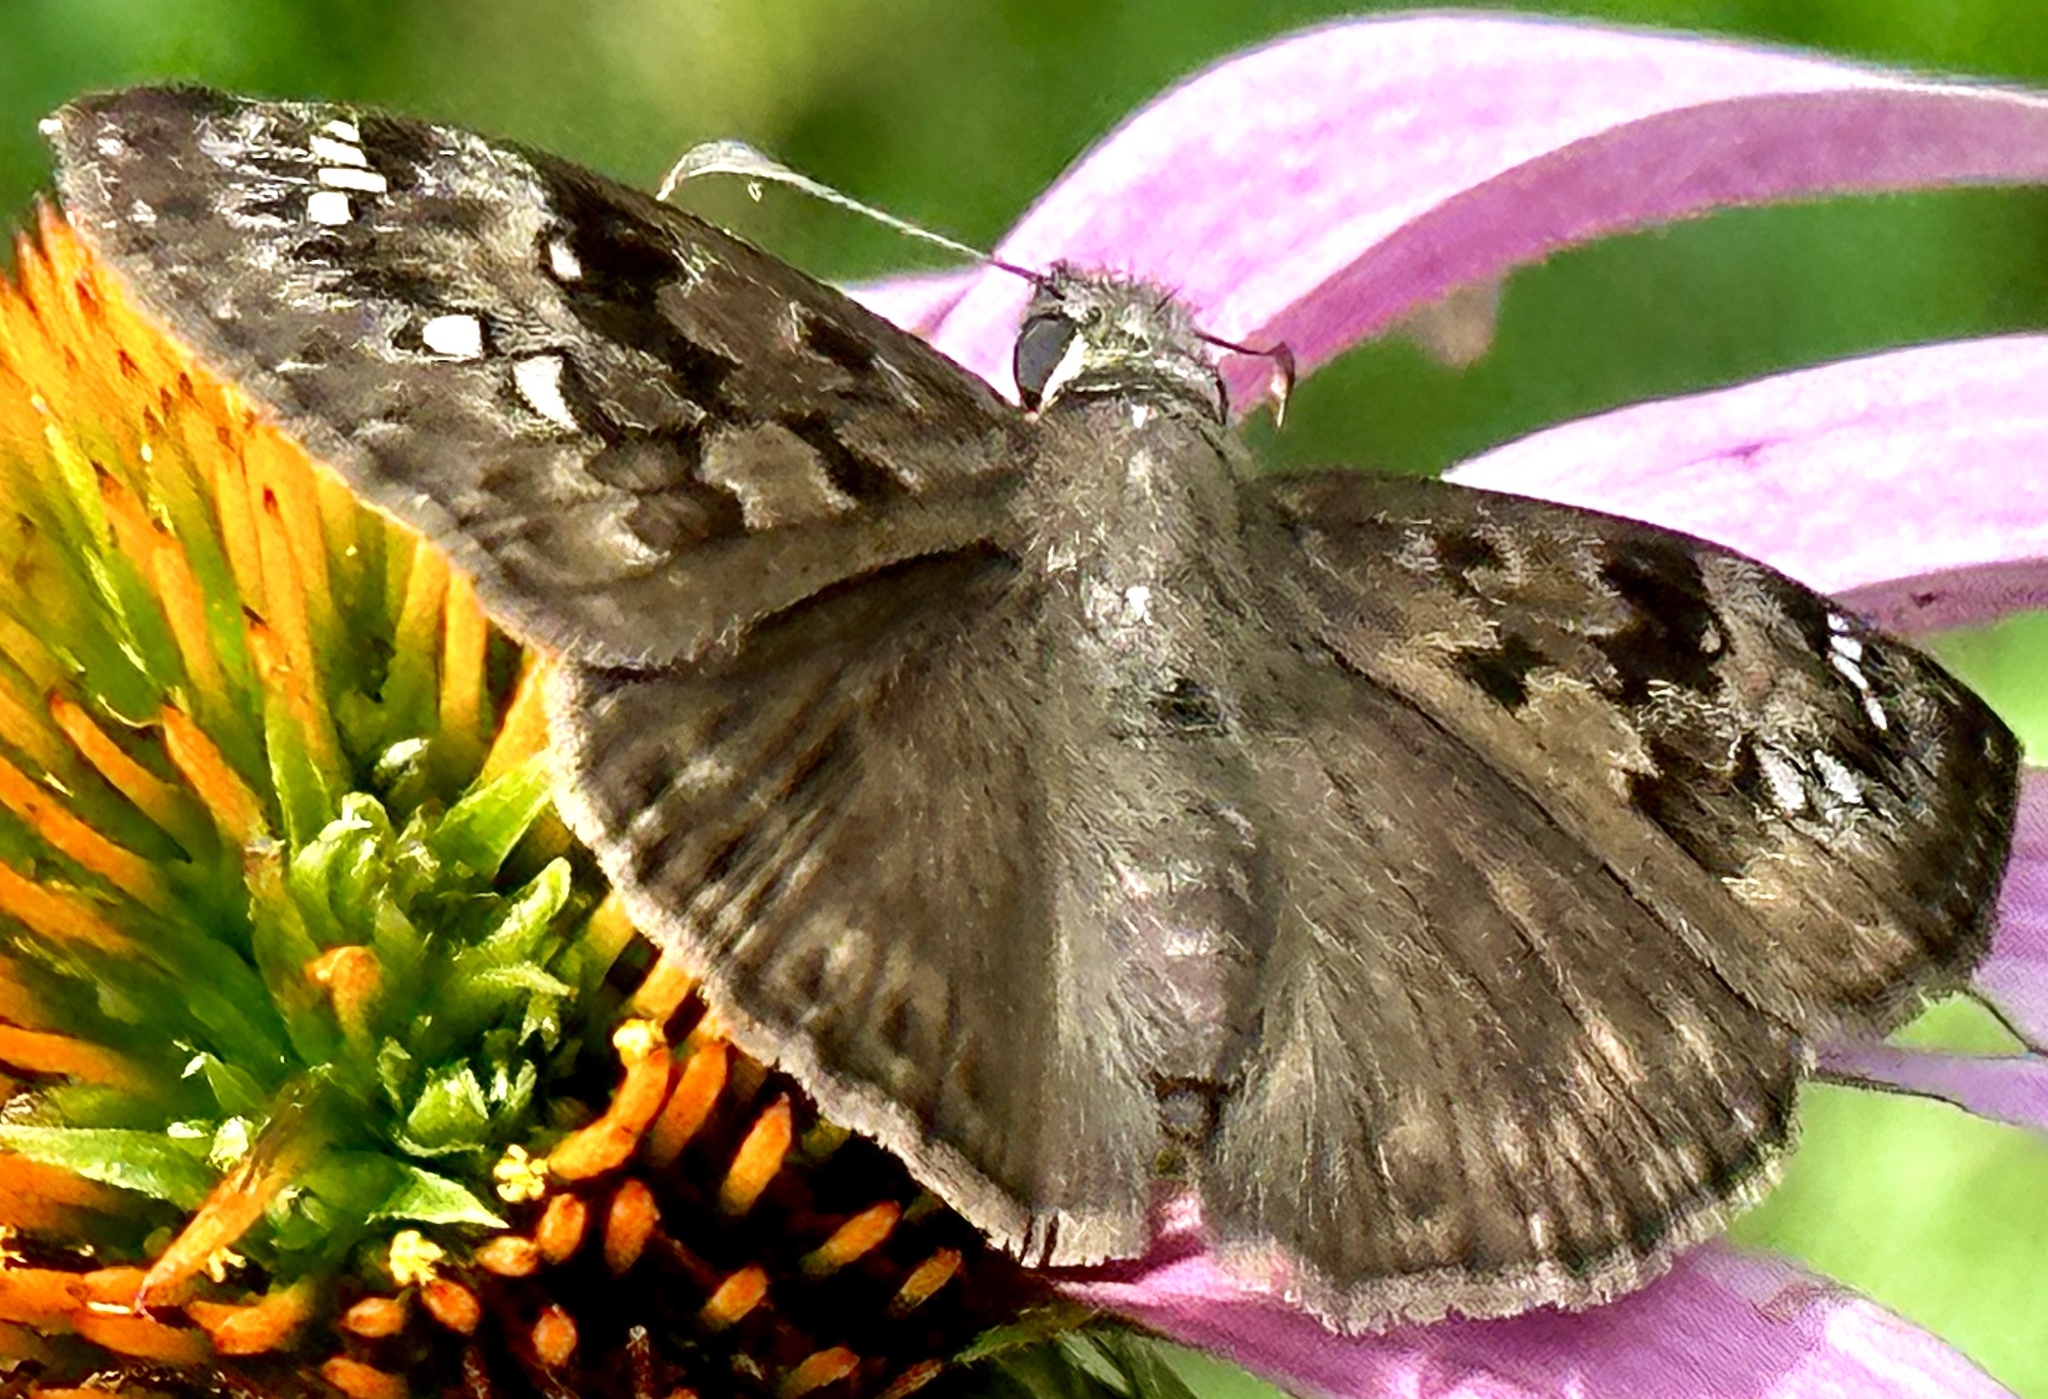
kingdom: Animalia
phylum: Arthropoda
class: Insecta
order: Lepidoptera
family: Hesperiidae
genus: Erynnis
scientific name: Erynnis horatius
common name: Horace's duskywing
